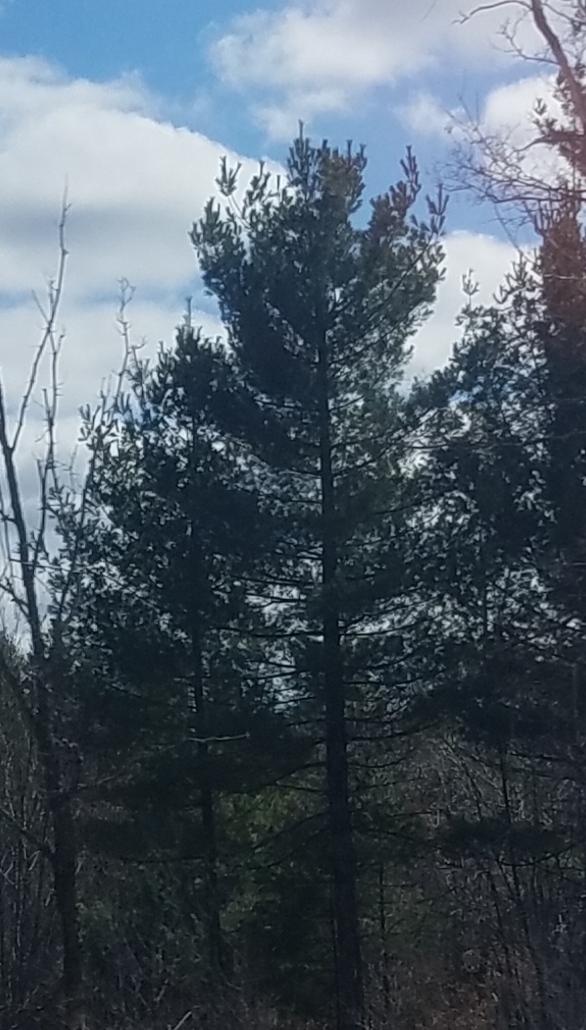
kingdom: Plantae
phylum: Tracheophyta
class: Pinopsida
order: Pinales
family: Pinaceae
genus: Pinus
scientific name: Pinus strobus
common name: Weymouth pine
